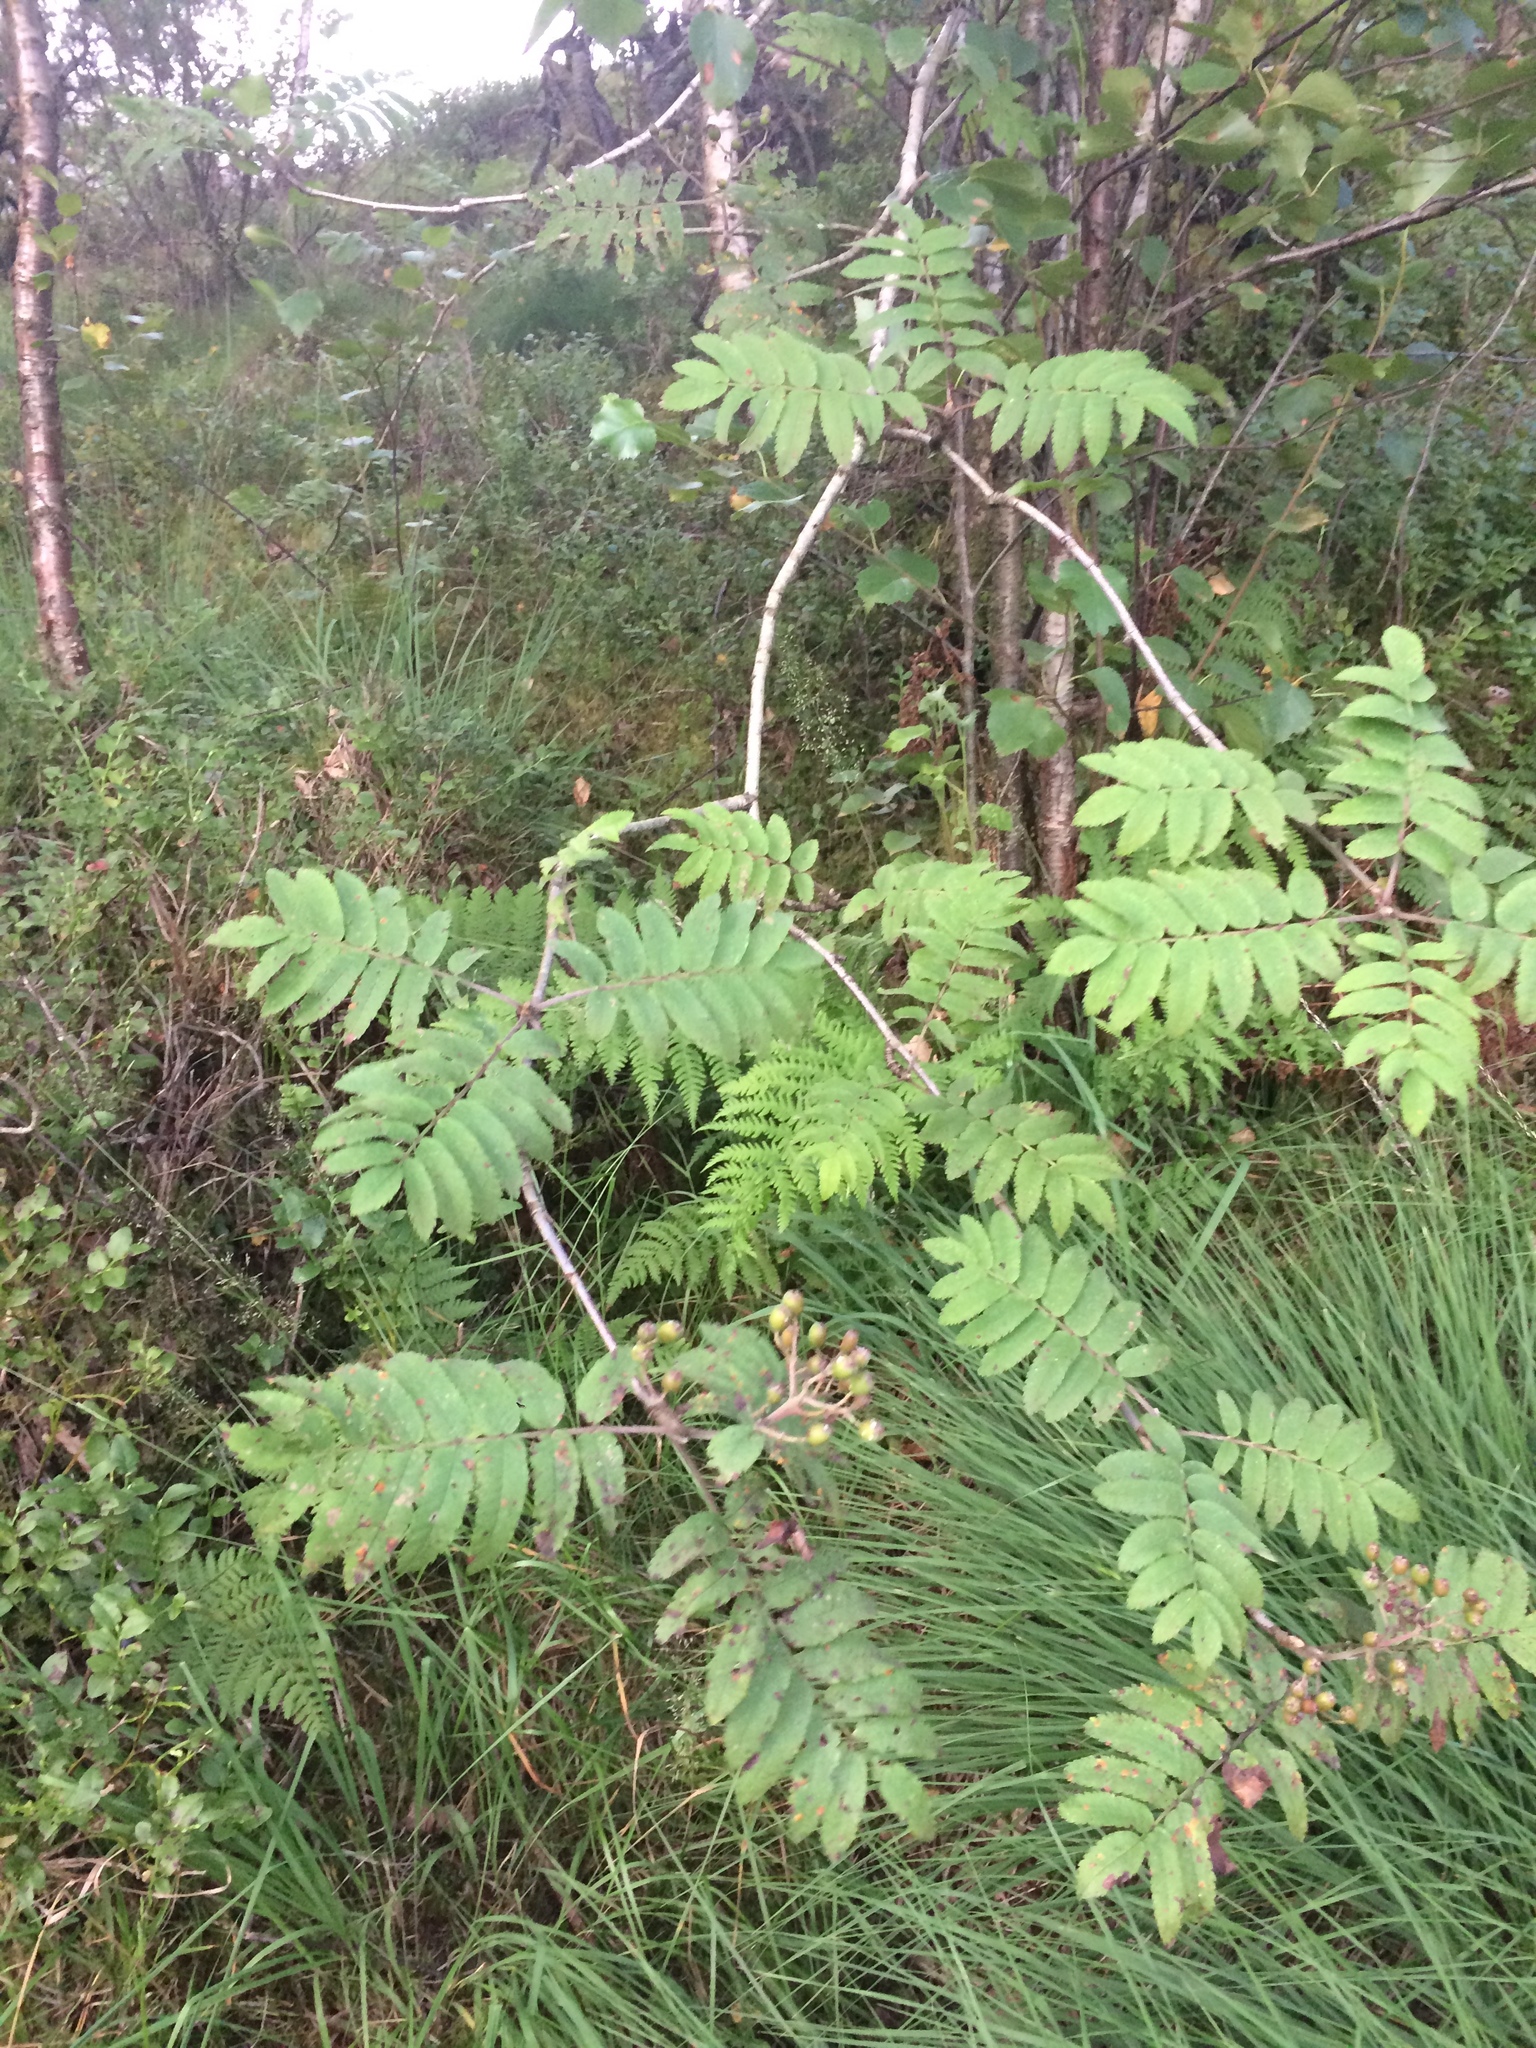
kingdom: Plantae
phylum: Tracheophyta
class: Magnoliopsida
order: Rosales
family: Rosaceae
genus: Sorbus
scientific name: Sorbus aucuparia
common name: Rowan
